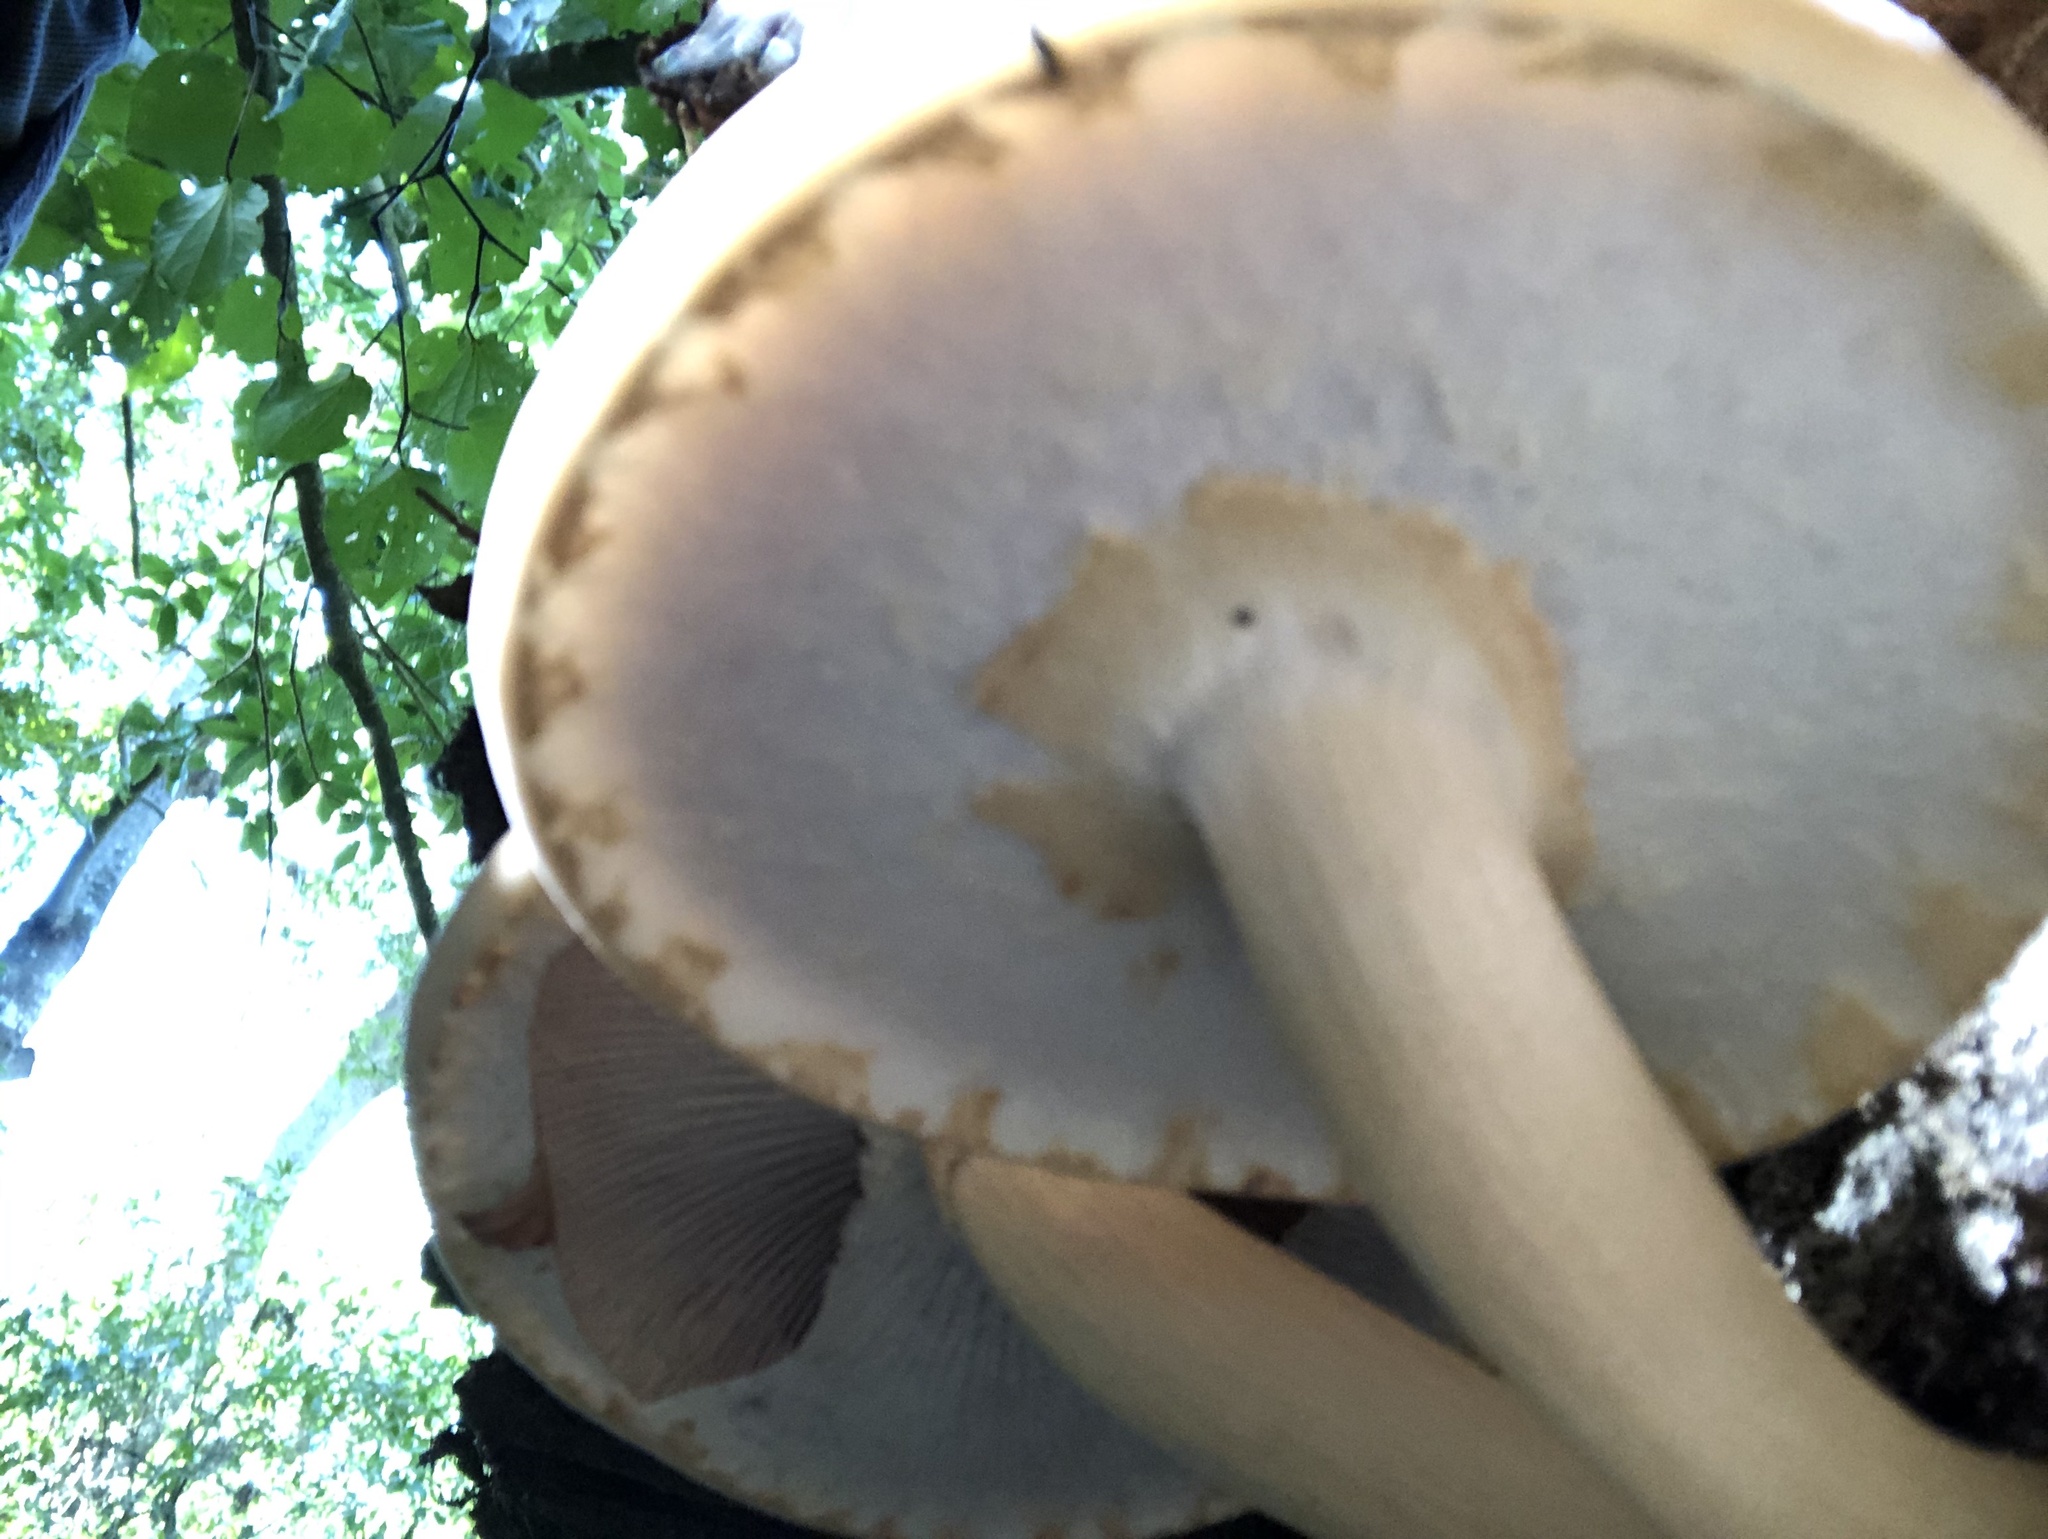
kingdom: Fungi
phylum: Basidiomycota
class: Agaricomycetes
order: Agaricales
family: Tubariaceae
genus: Cyclocybe
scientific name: Cyclocybe parasitica
